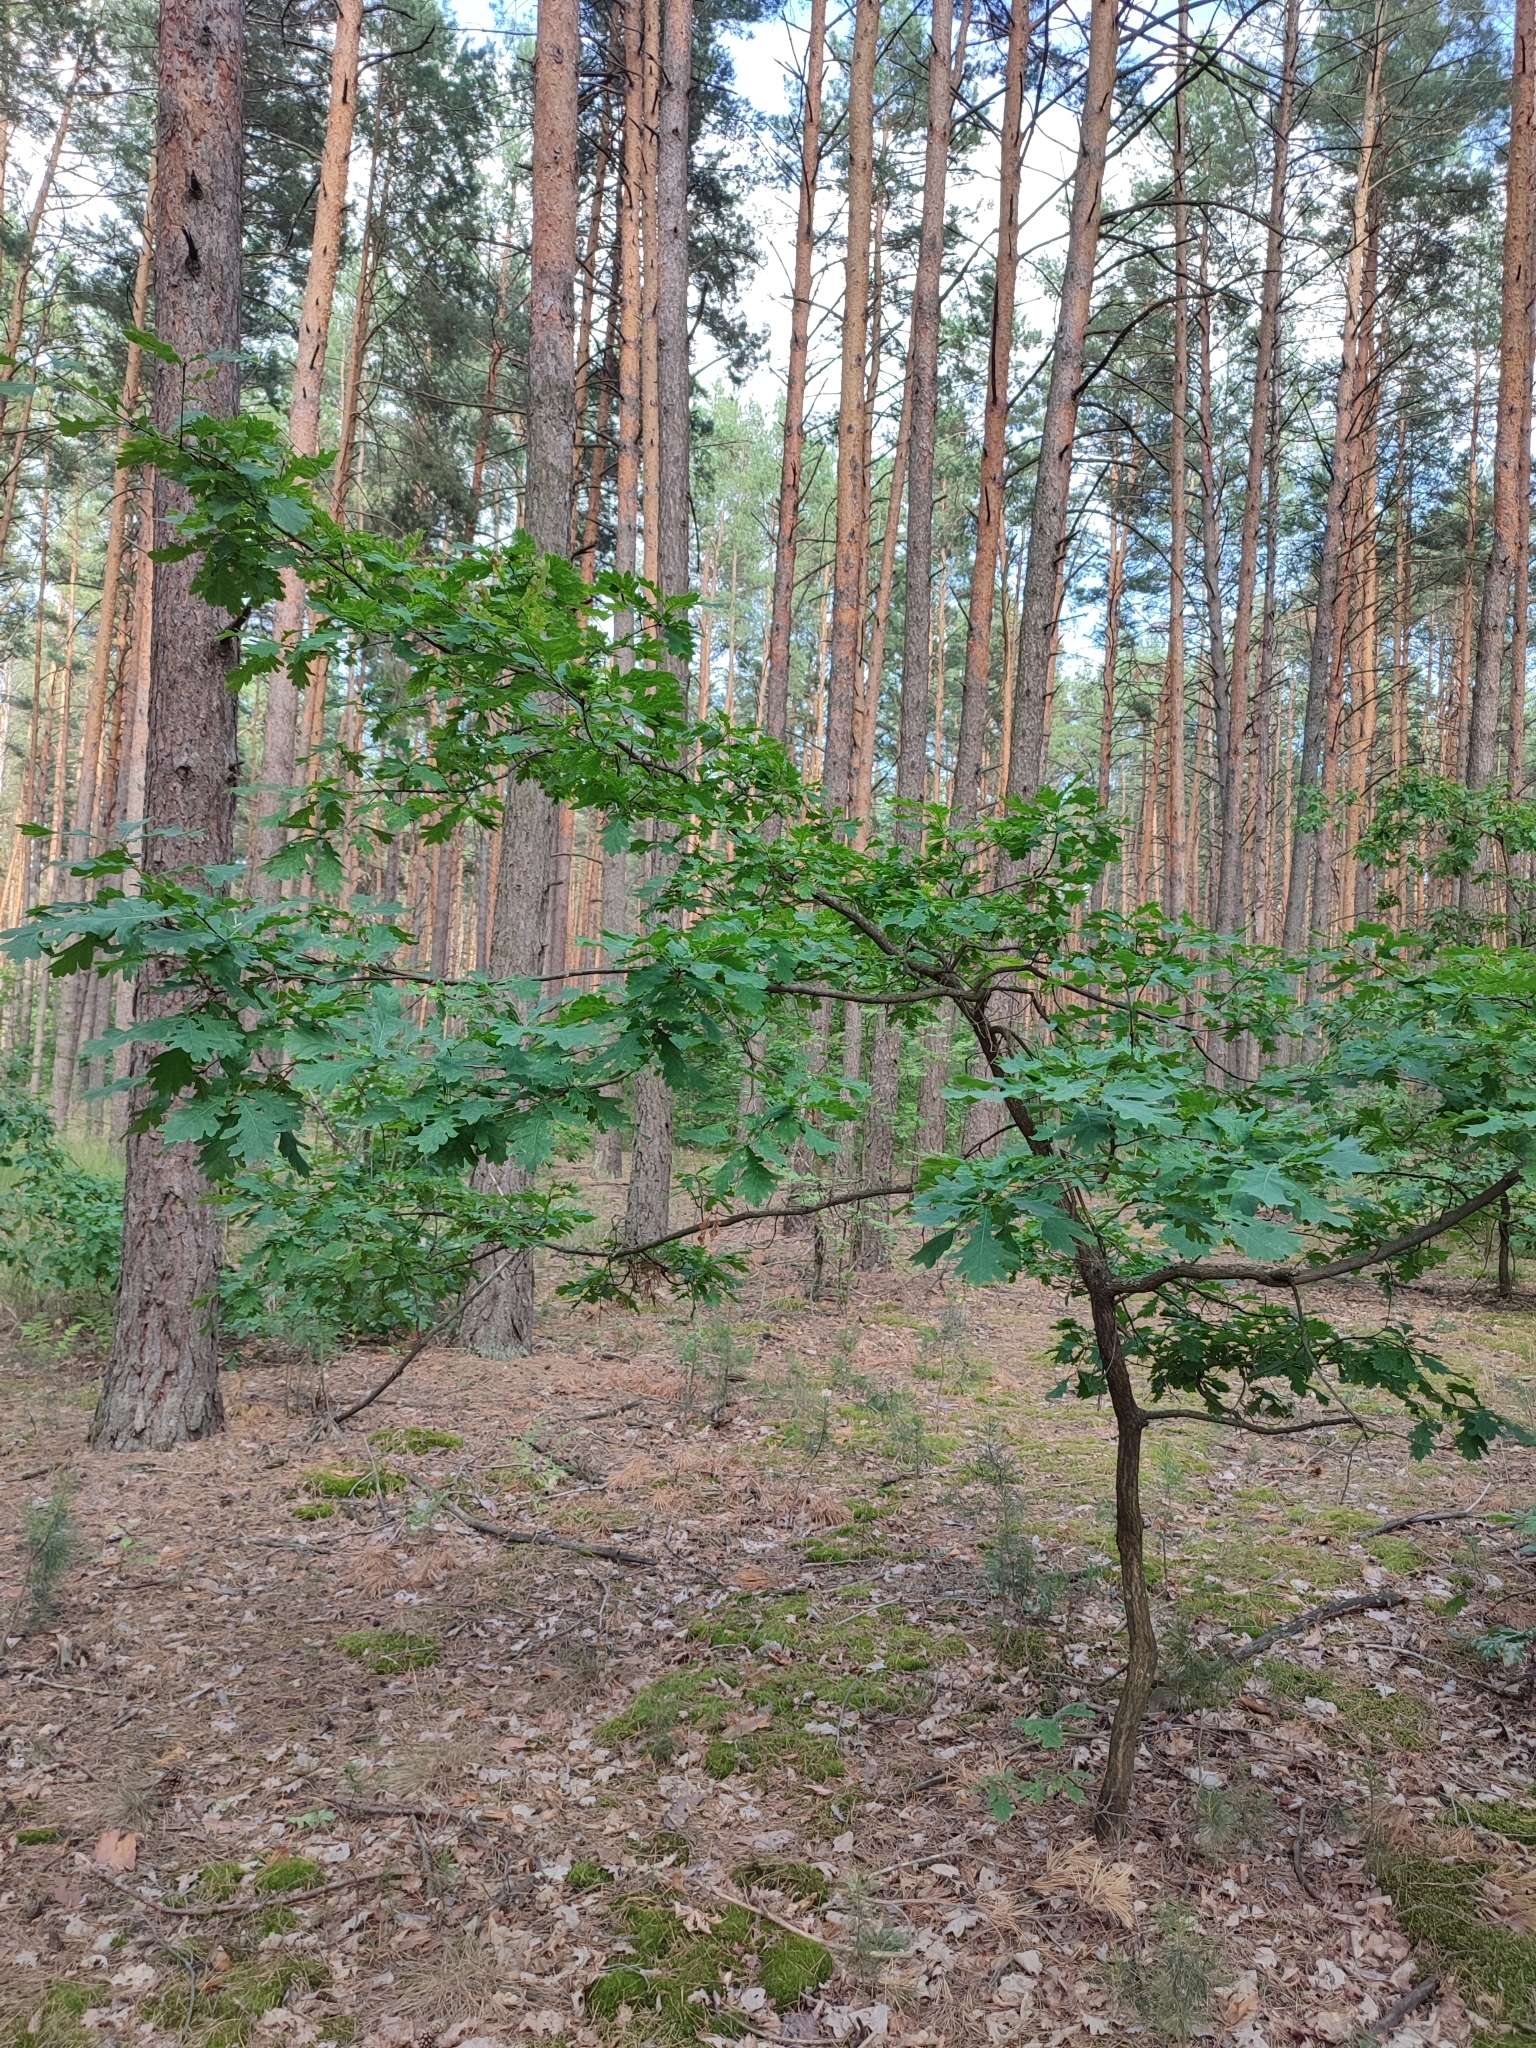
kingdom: Plantae
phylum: Tracheophyta
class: Magnoliopsida
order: Fagales
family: Fagaceae
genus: Quercus
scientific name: Quercus robur
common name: Pedunculate oak
